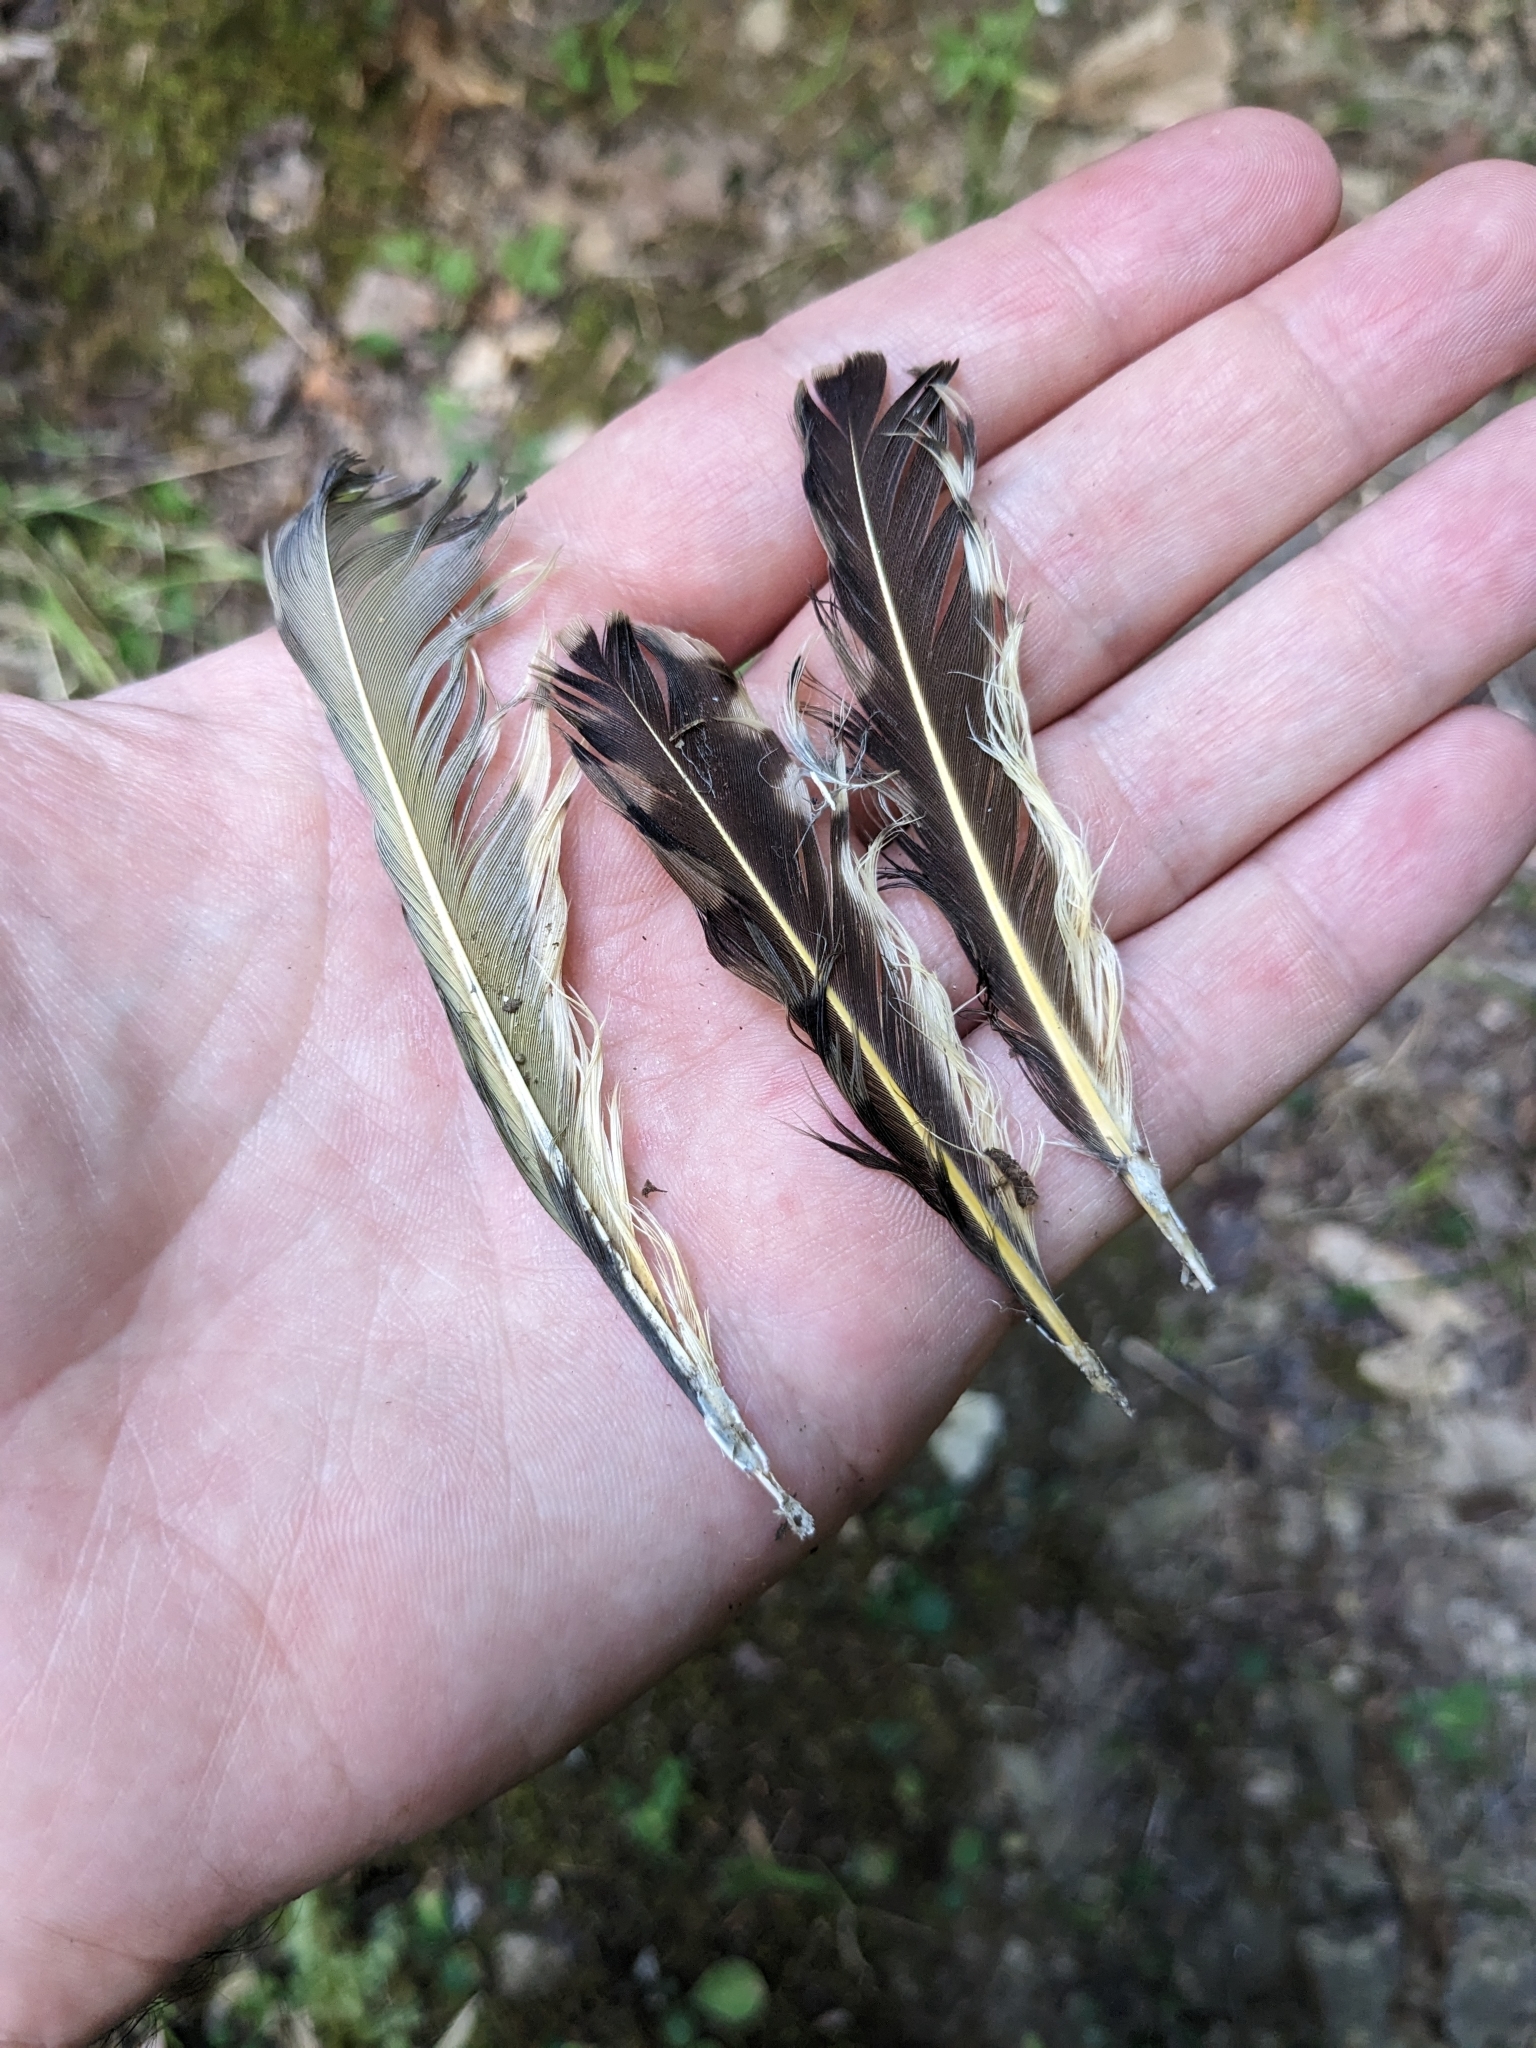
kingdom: Animalia
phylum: Chordata
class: Aves
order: Piciformes
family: Picidae
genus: Colaptes
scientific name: Colaptes auratus
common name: Northern flicker
